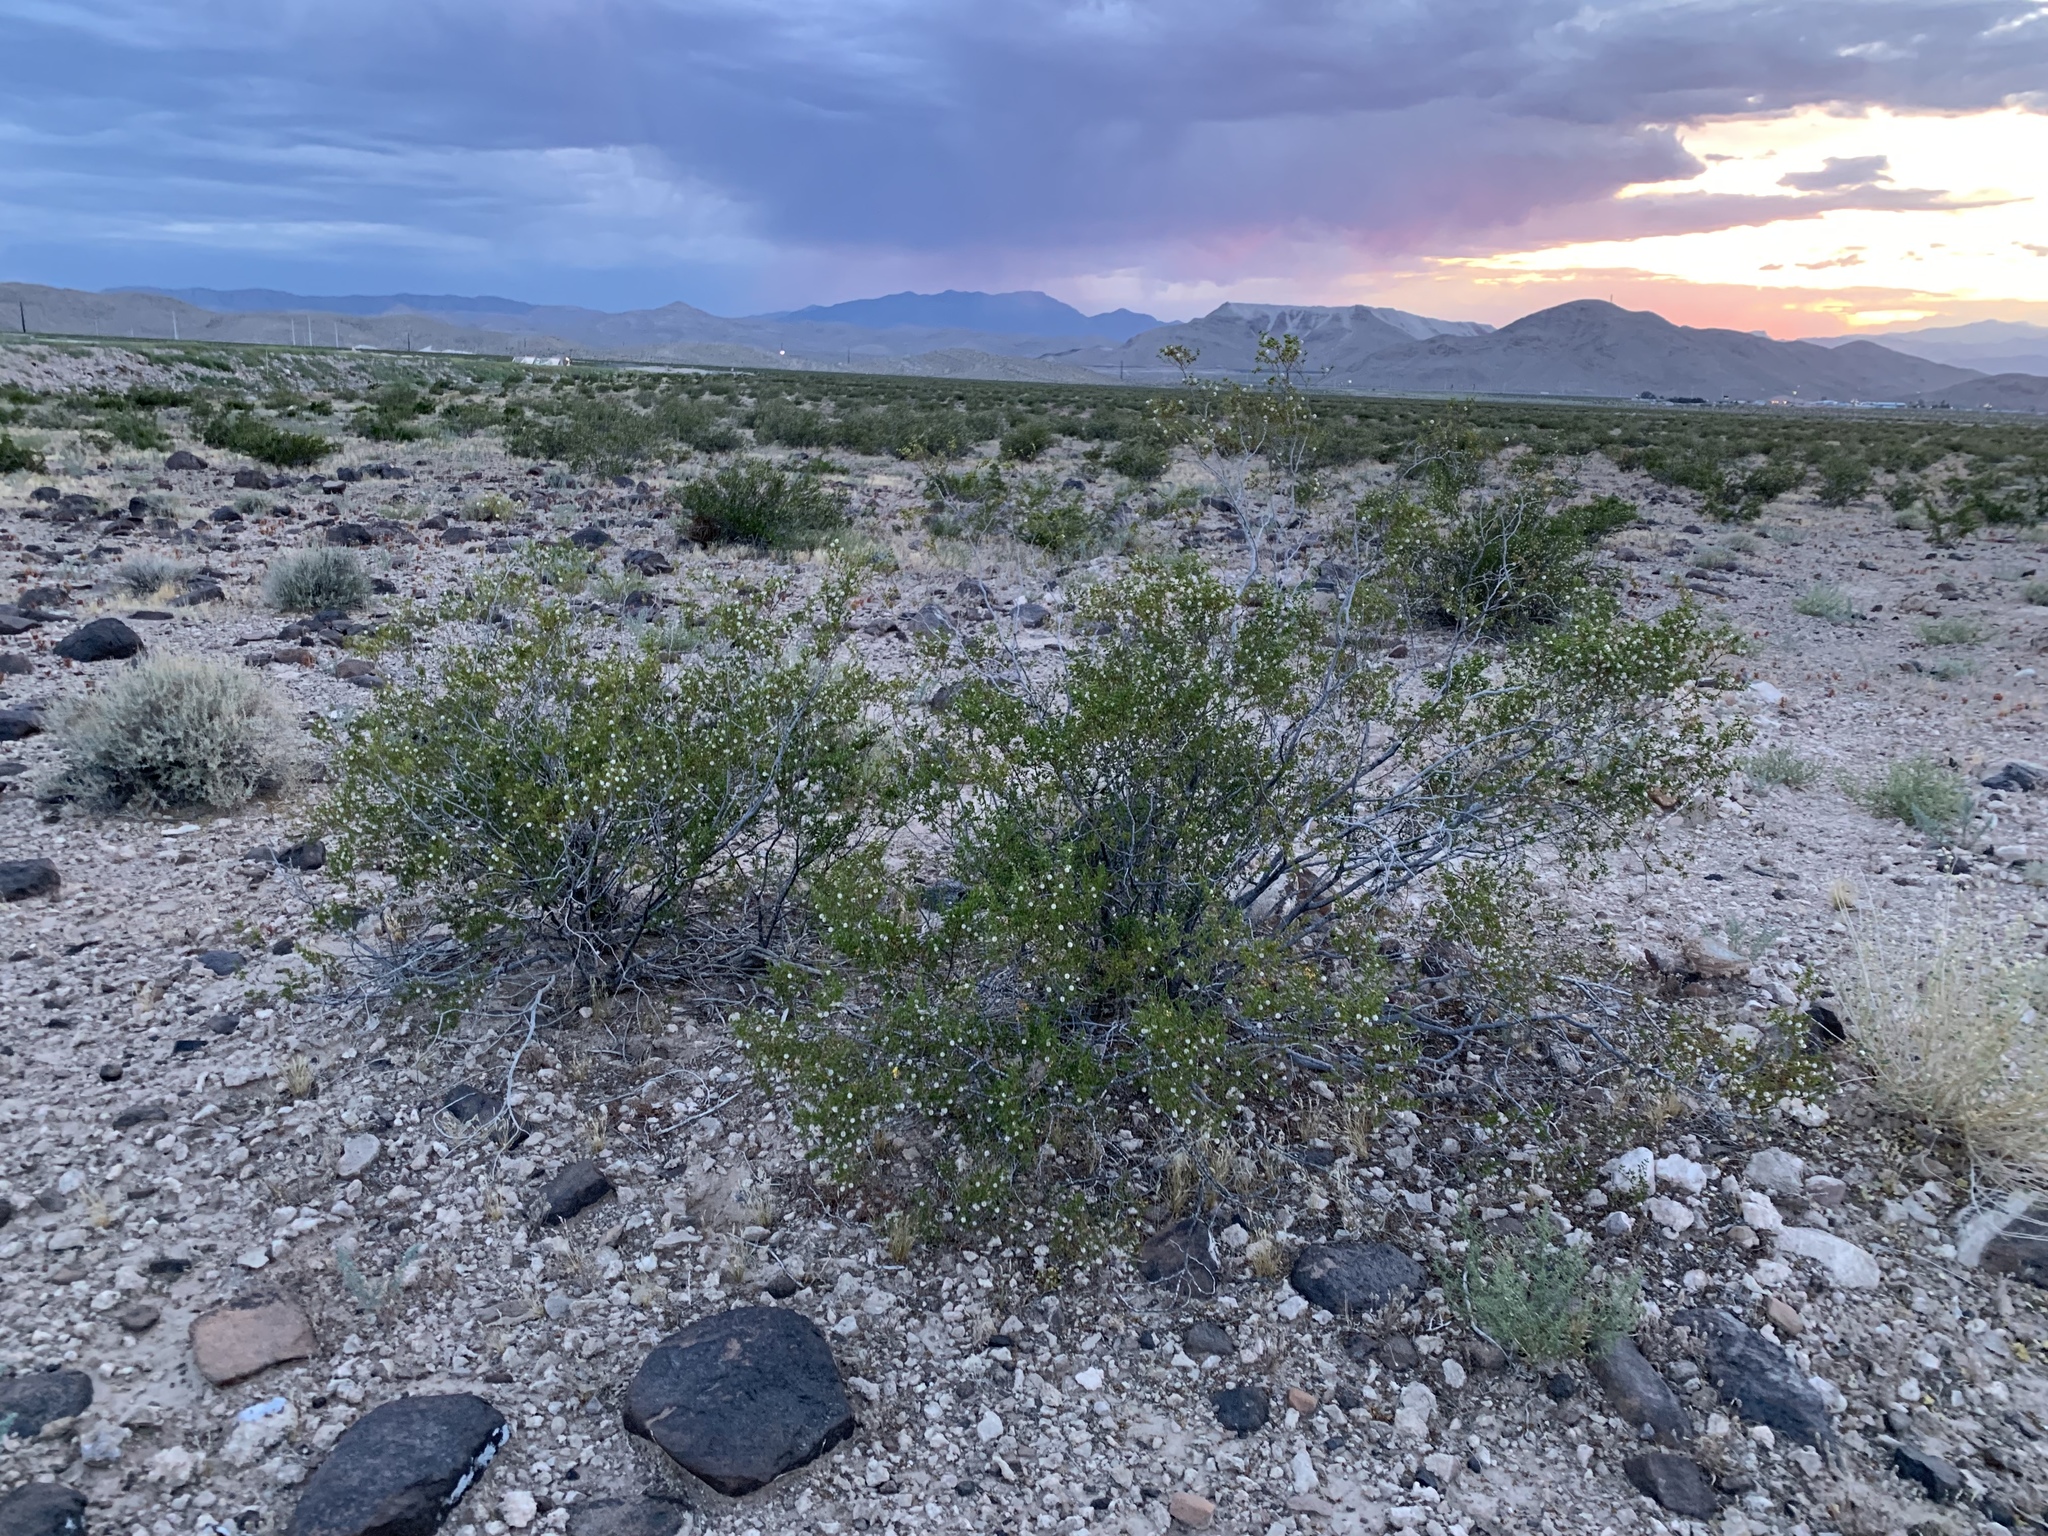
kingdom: Plantae
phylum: Tracheophyta
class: Magnoliopsida
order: Zygophyllales
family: Zygophyllaceae
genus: Larrea
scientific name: Larrea tridentata
